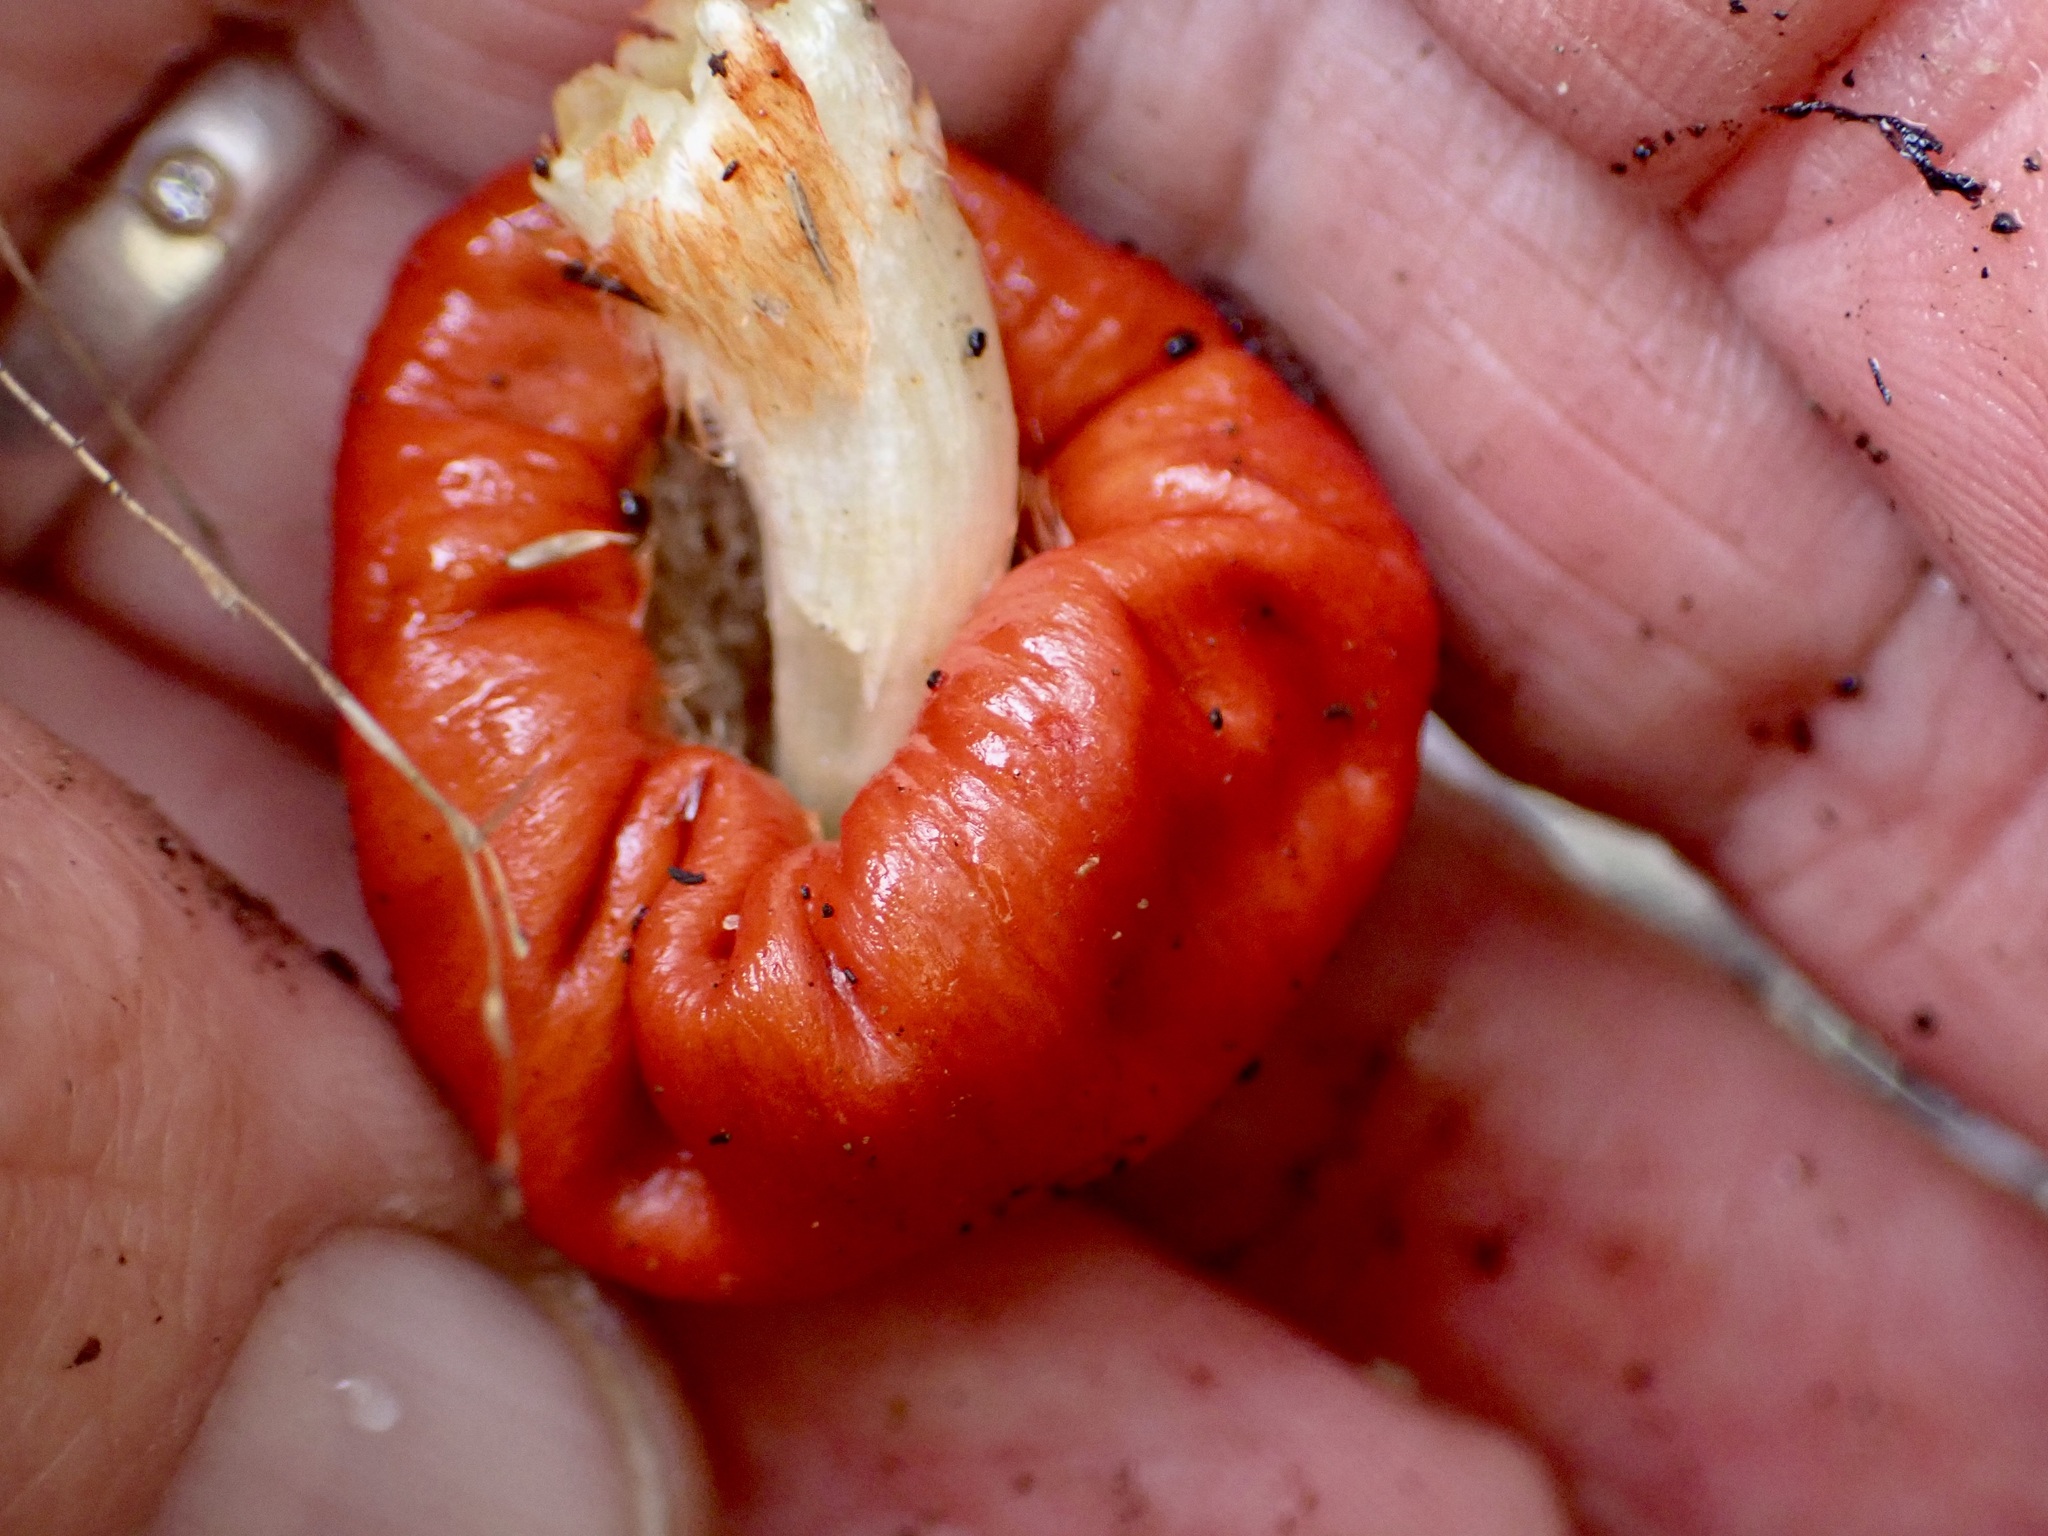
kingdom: Fungi
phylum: Basidiomycota
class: Agaricomycetes
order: Agaricales
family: Strophariaceae
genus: Leratiomyces
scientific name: Leratiomyces erythrocephalus
